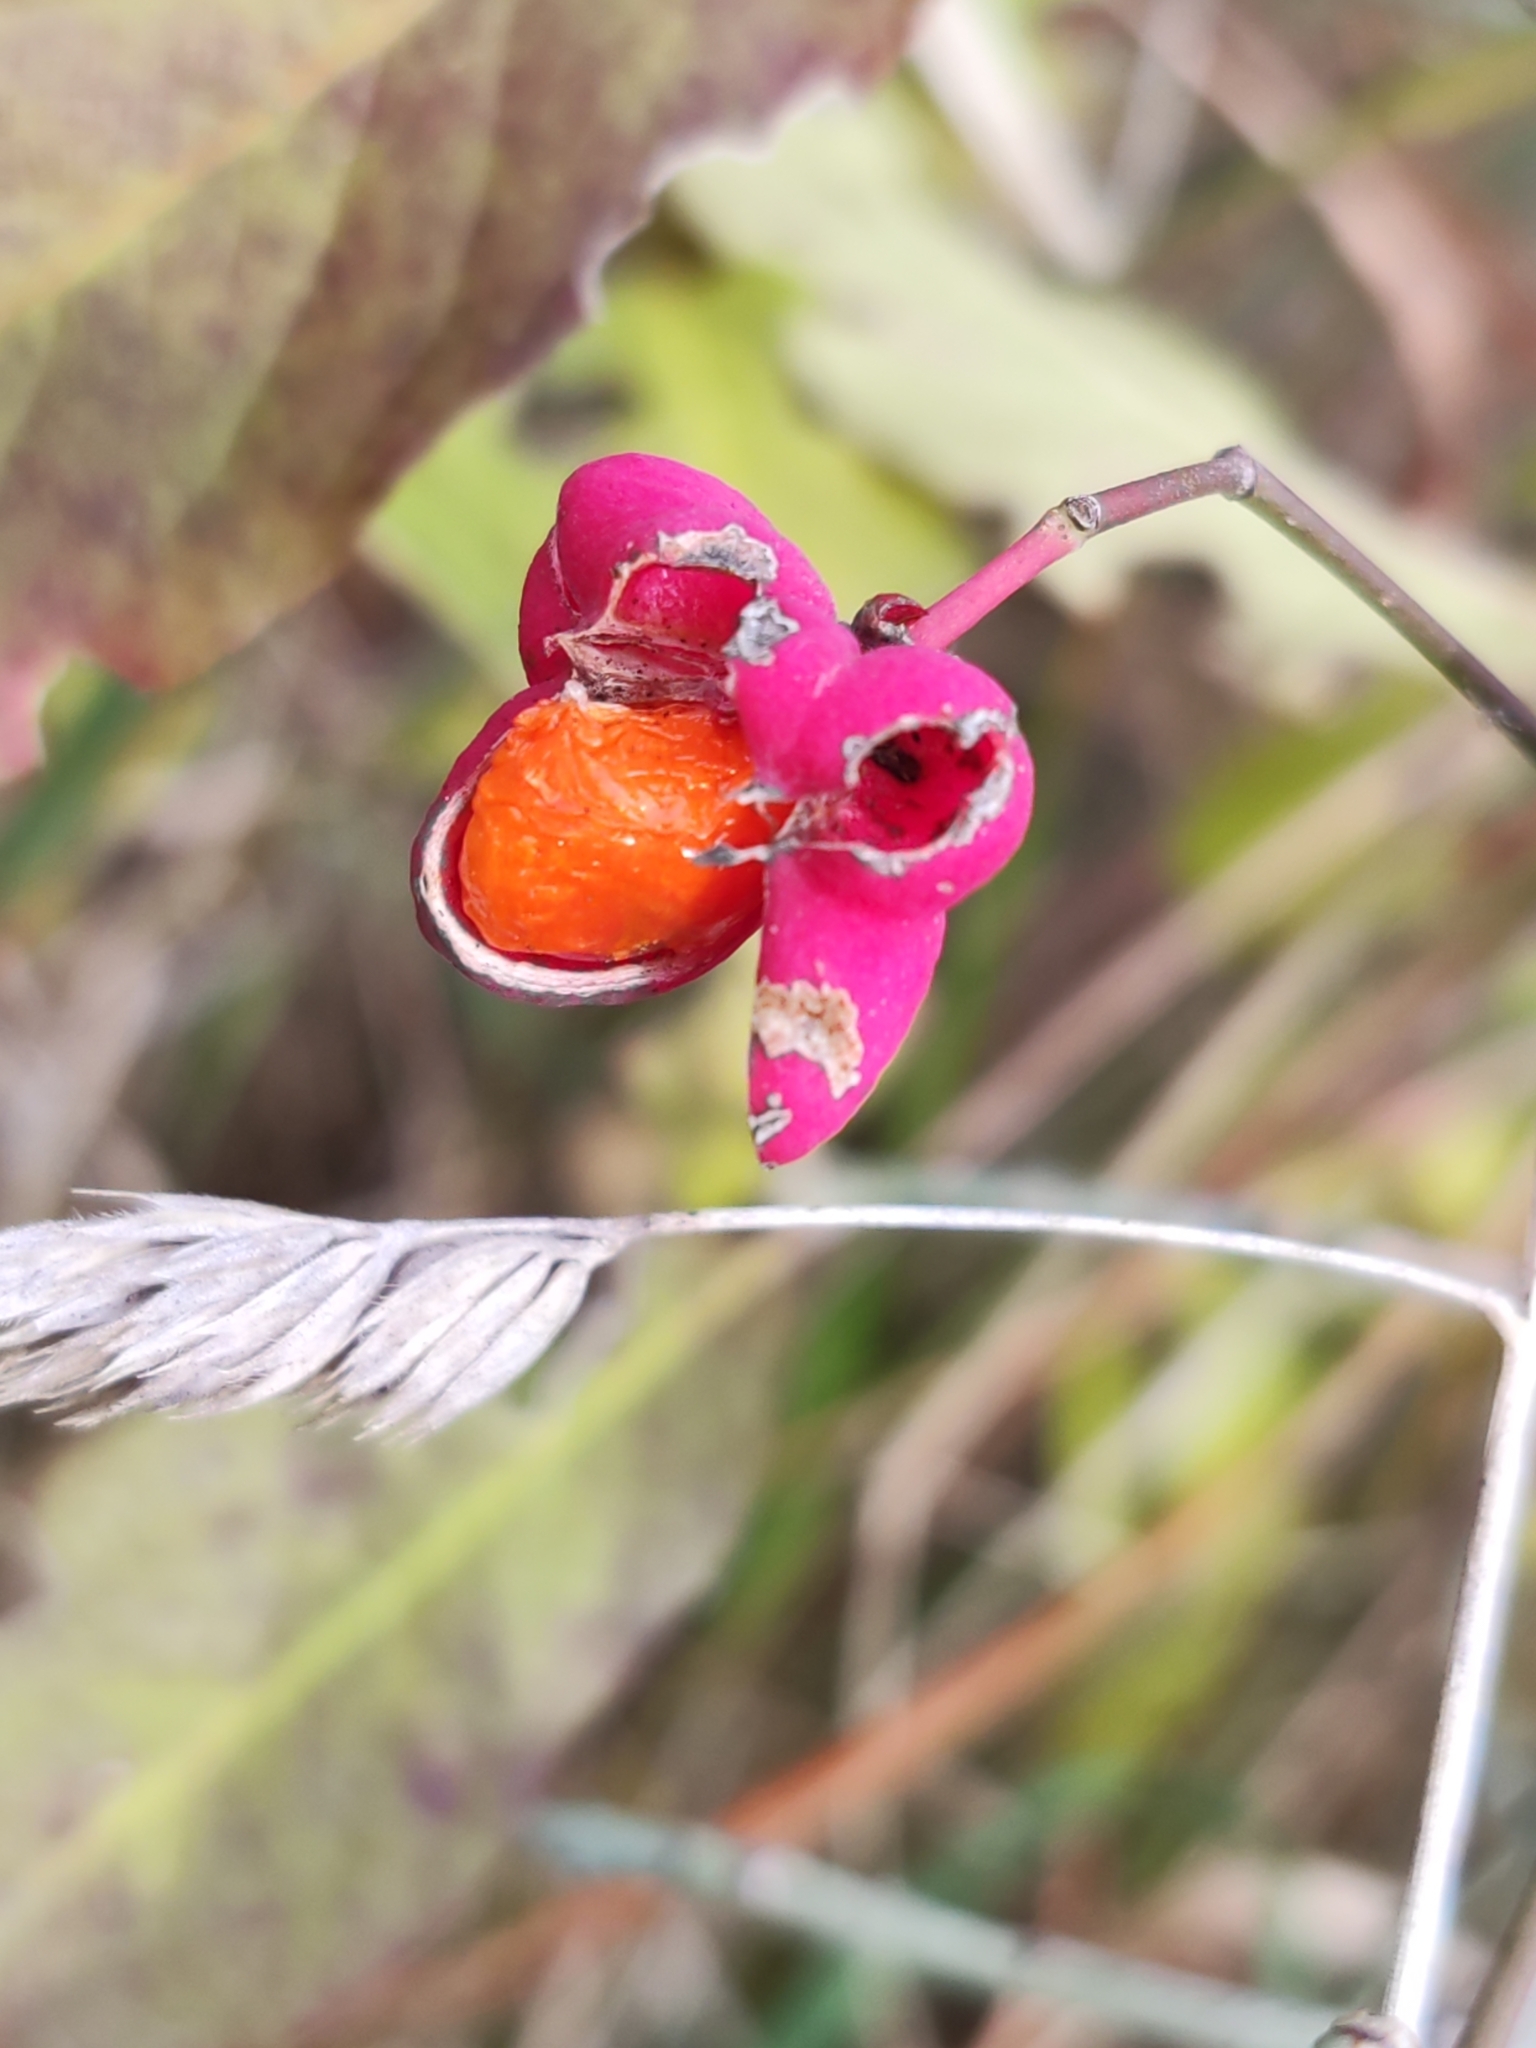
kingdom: Plantae
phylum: Tracheophyta
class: Magnoliopsida
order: Celastrales
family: Celastraceae
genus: Euonymus
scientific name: Euonymus europaeus
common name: Spindle
